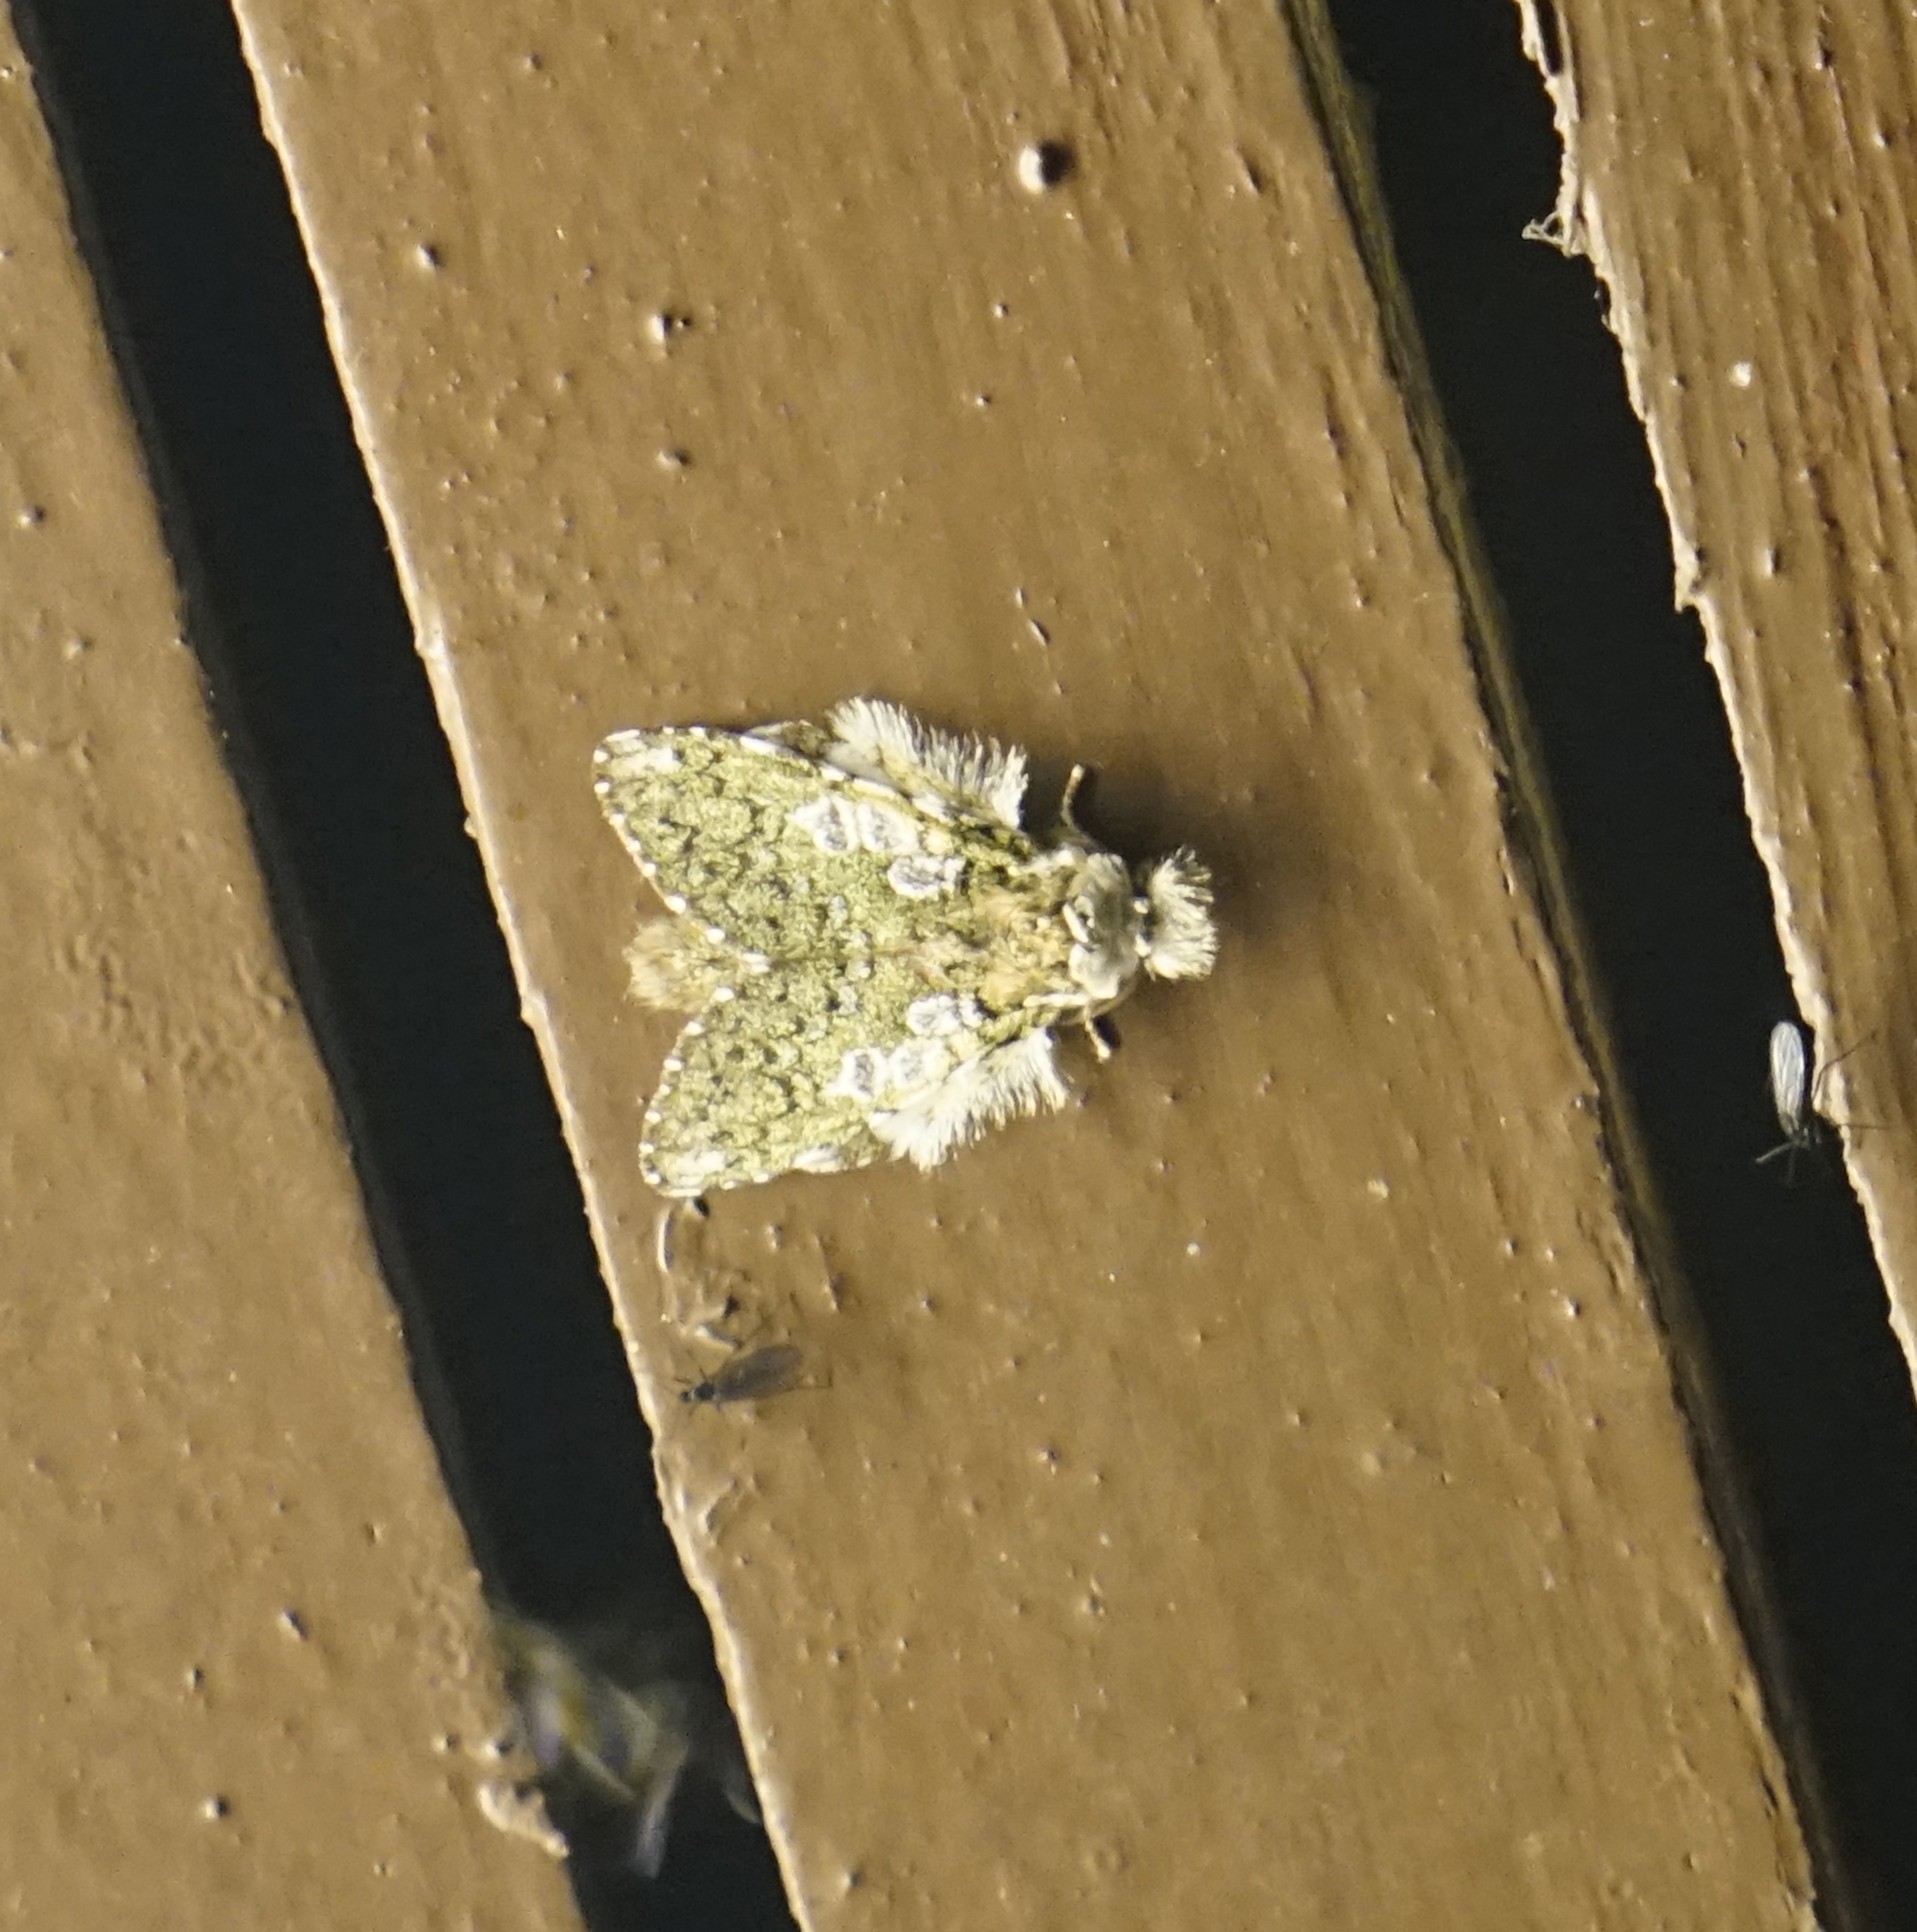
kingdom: Animalia
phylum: Arthropoda
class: Insecta
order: Lepidoptera
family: Notodontidae
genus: Syntypistis
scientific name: Syntypistis comatus
